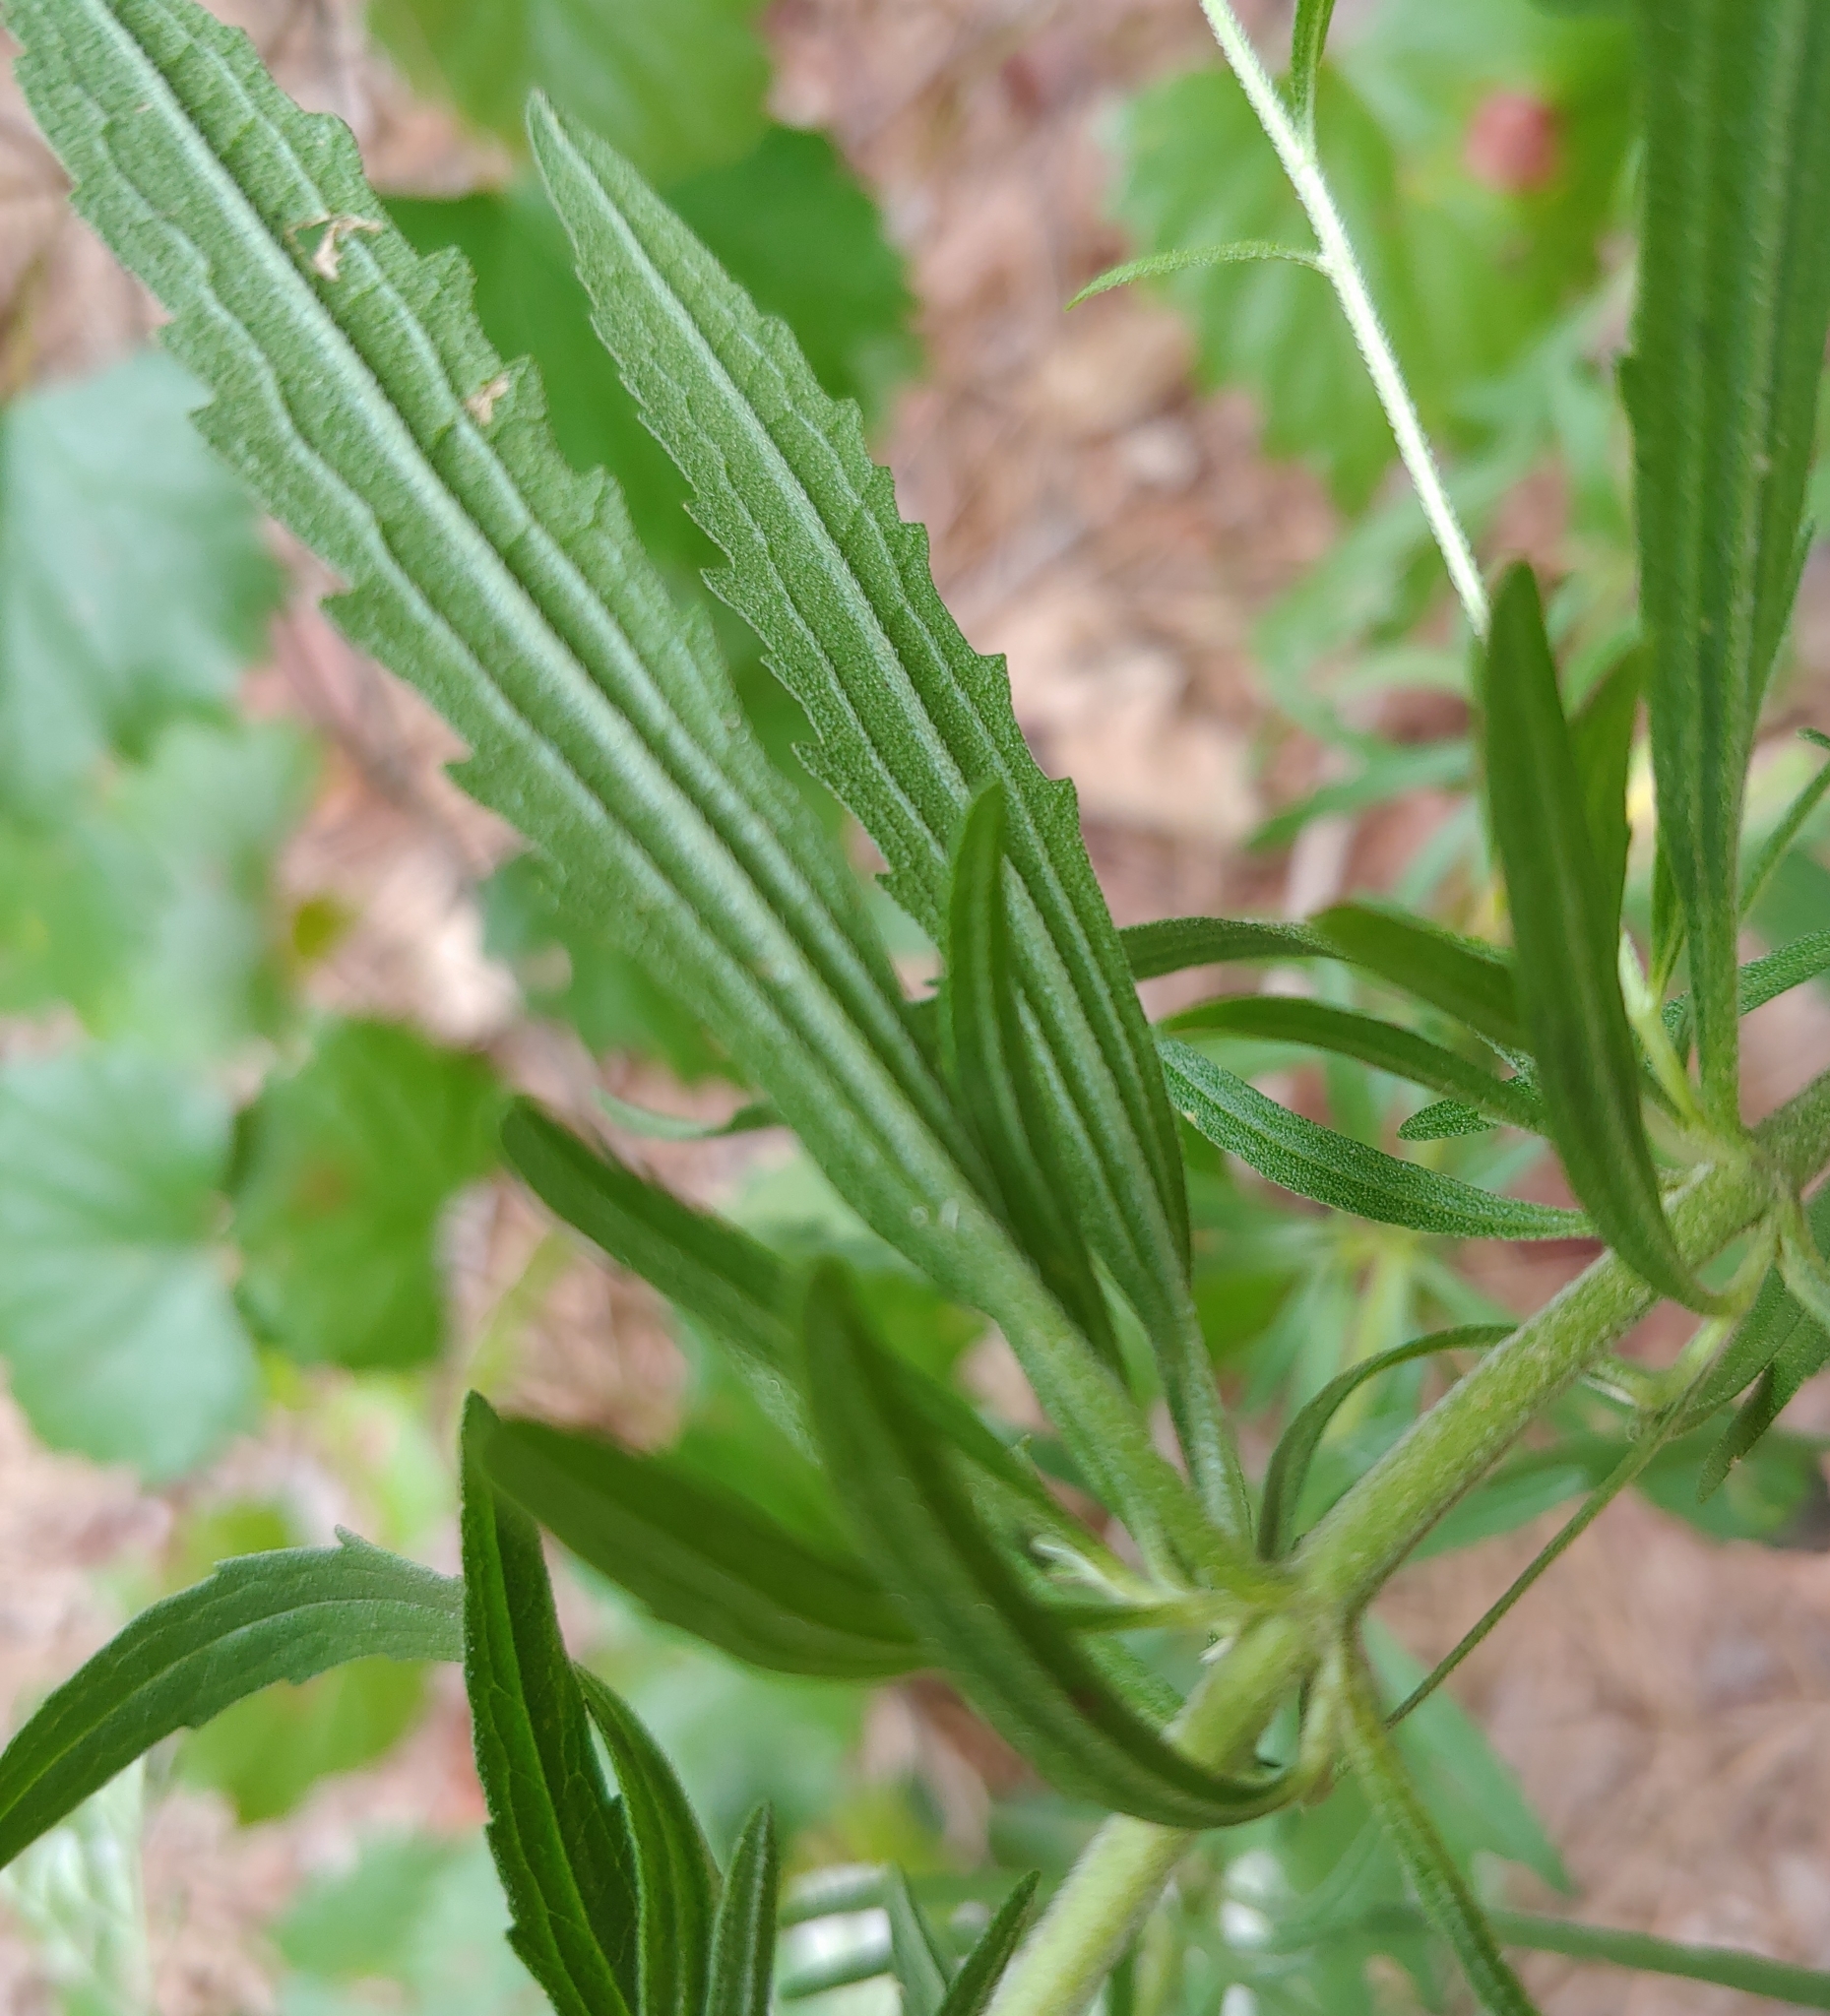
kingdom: Plantae
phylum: Tracheophyta
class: Magnoliopsida
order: Asterales
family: Asteraceae
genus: Eupatorium
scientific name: Eupatorium torreyanum
